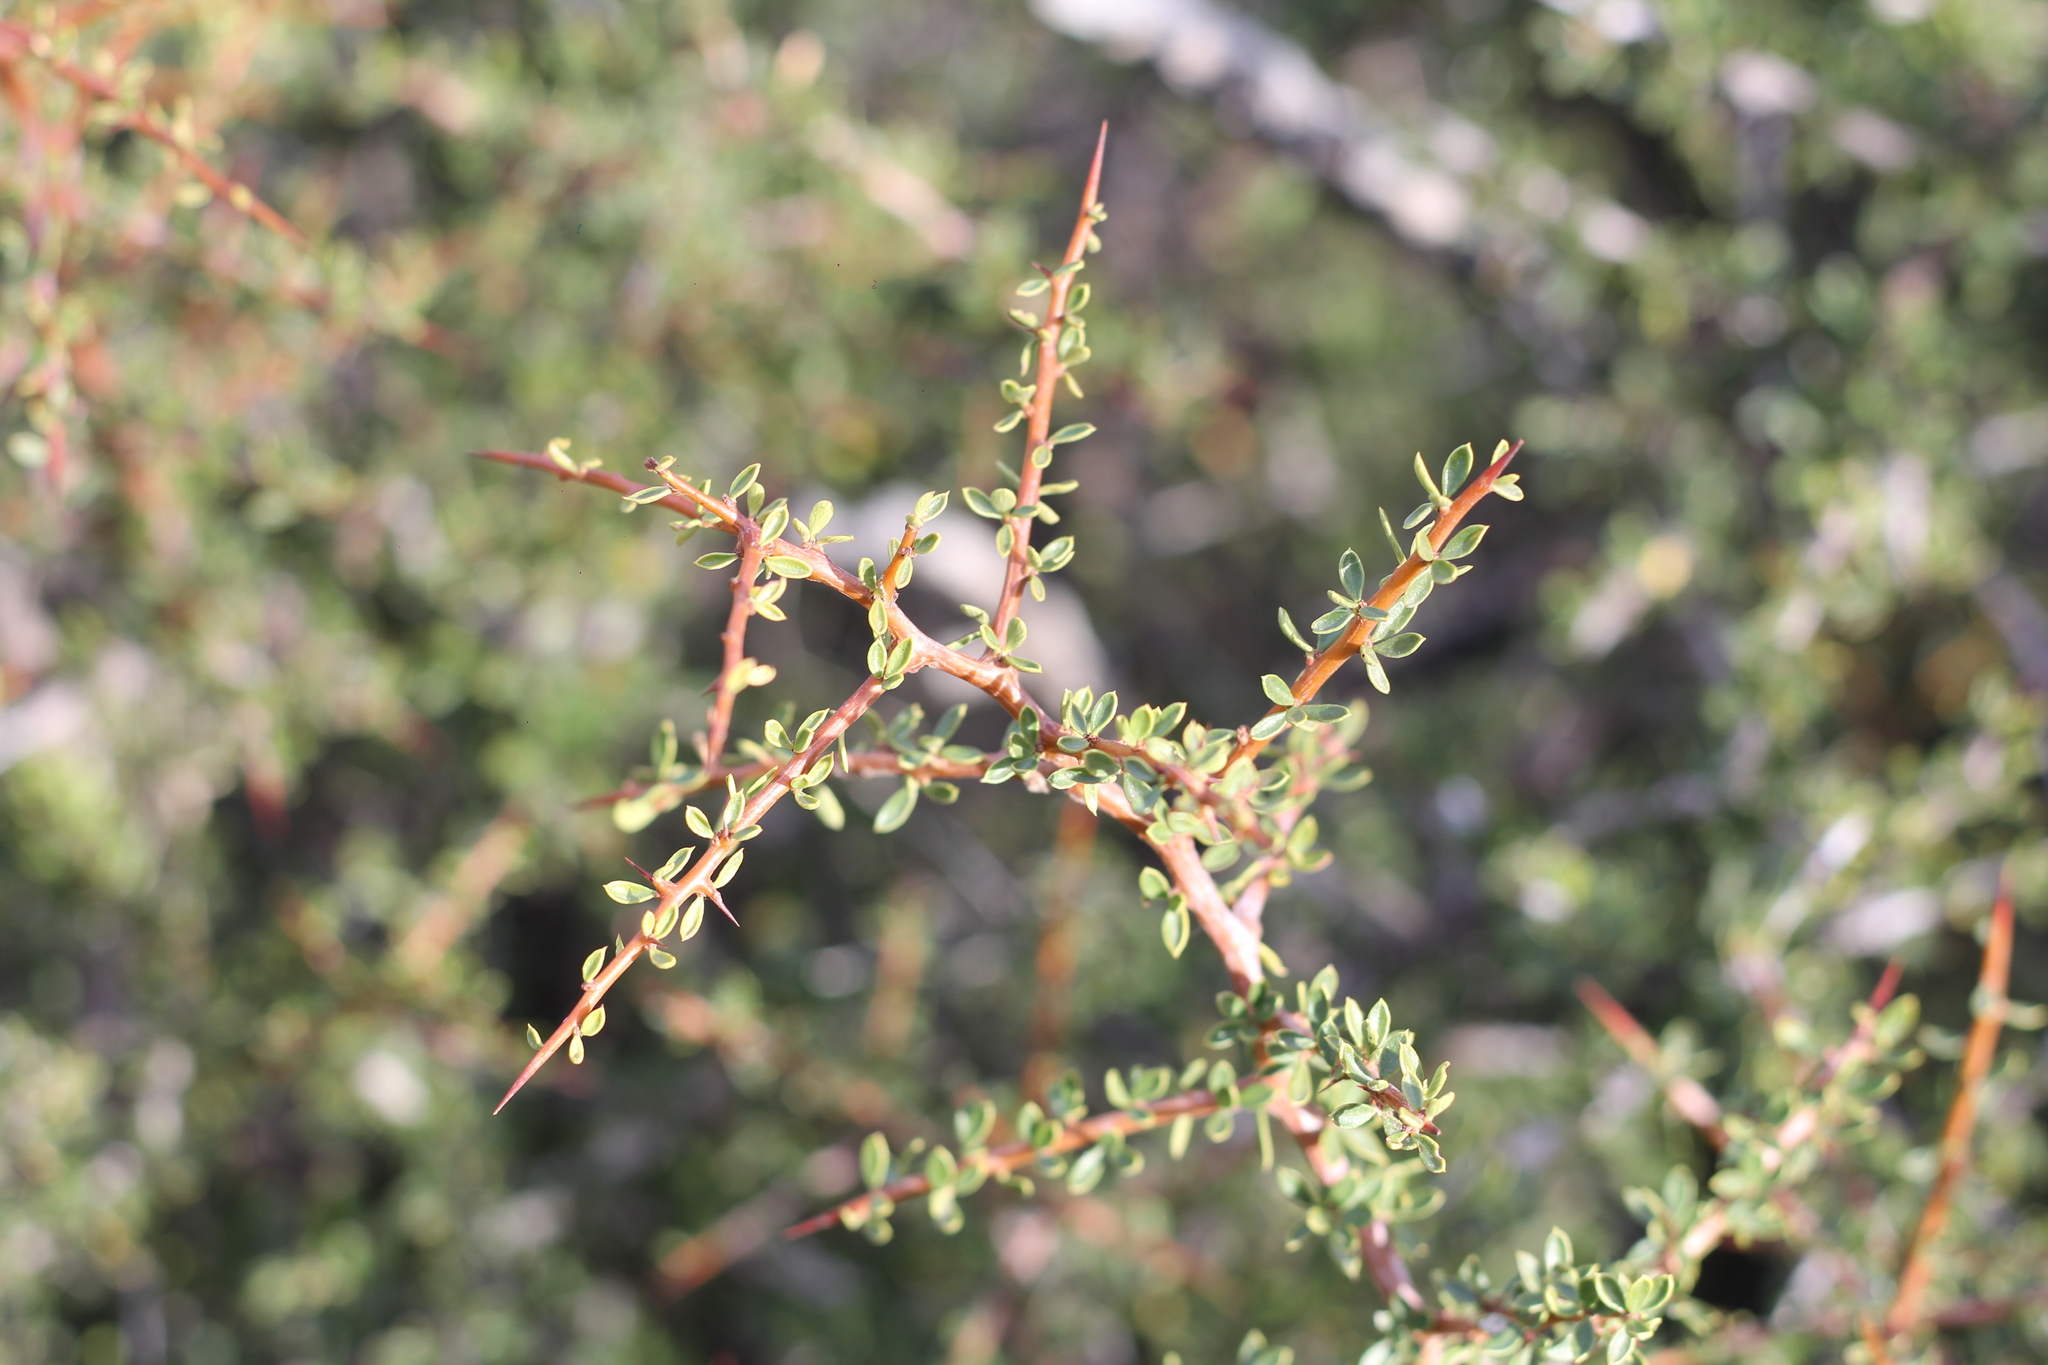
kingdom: Plantae
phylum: Tracheophyta
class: Magnoliopsida
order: Rosales
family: Rhamnaceae
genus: Condalia
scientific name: Condalia microphylla
